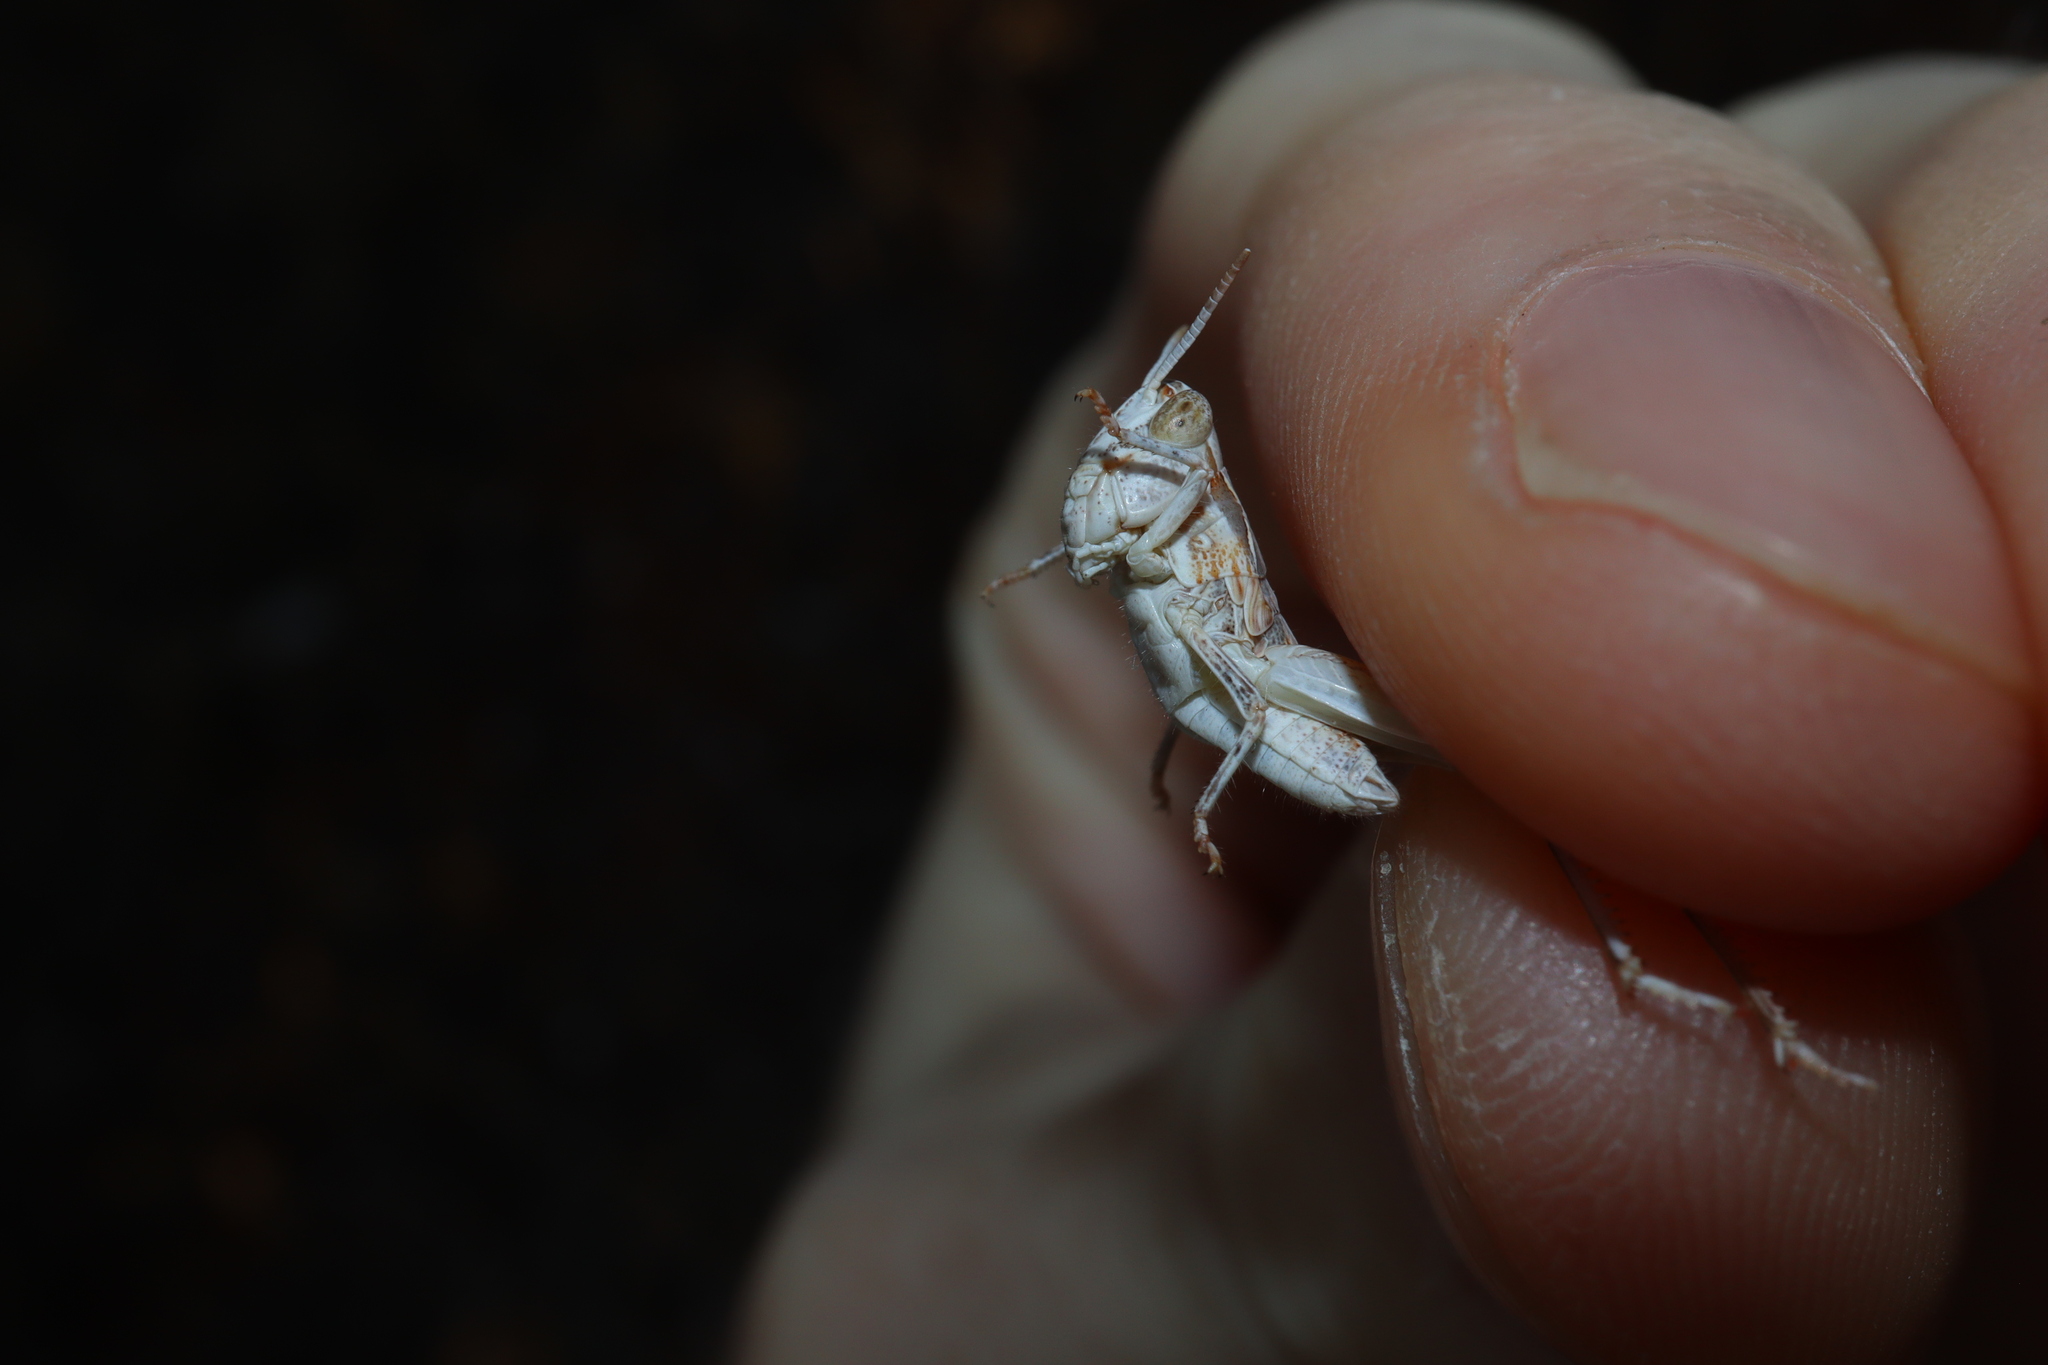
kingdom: Animalia
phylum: Arthropoda
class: Insecta
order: Orthoptera
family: Acrididae
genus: Chortoicetes
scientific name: Chortoicetes terminifera
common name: Australian plague locust
